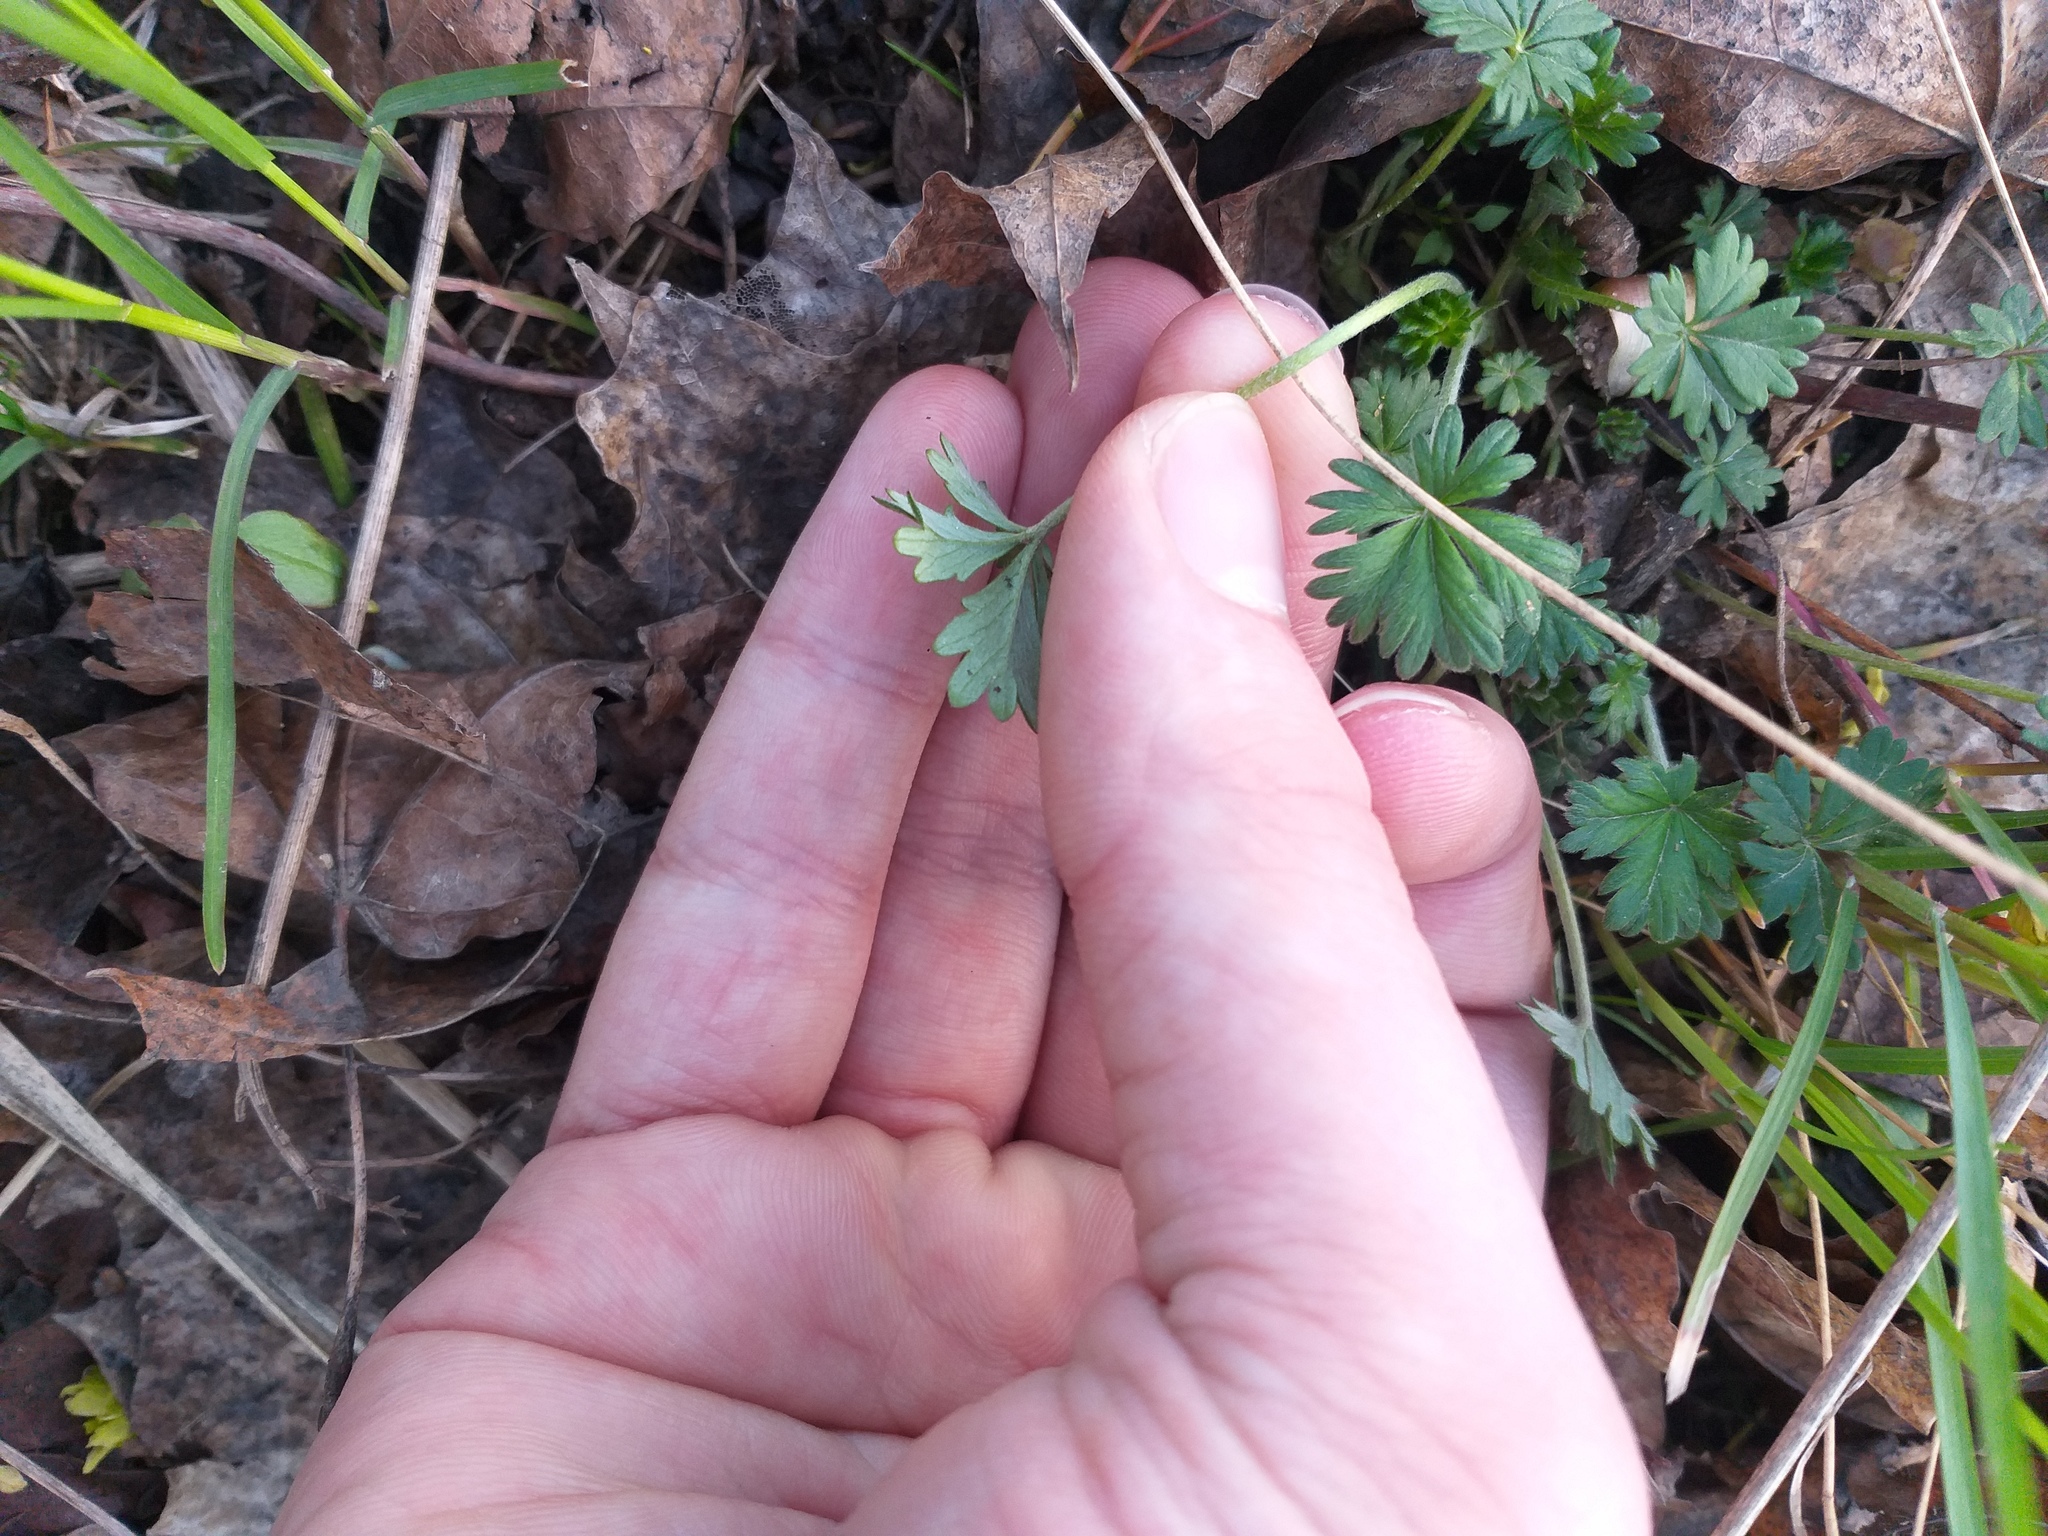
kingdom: Plantae
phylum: Tracheophyta
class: Magnoliopsida
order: Rosales
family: Rosaceae
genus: Potentilla
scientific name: Potentilla argentea
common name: Hoary cinquefoil
